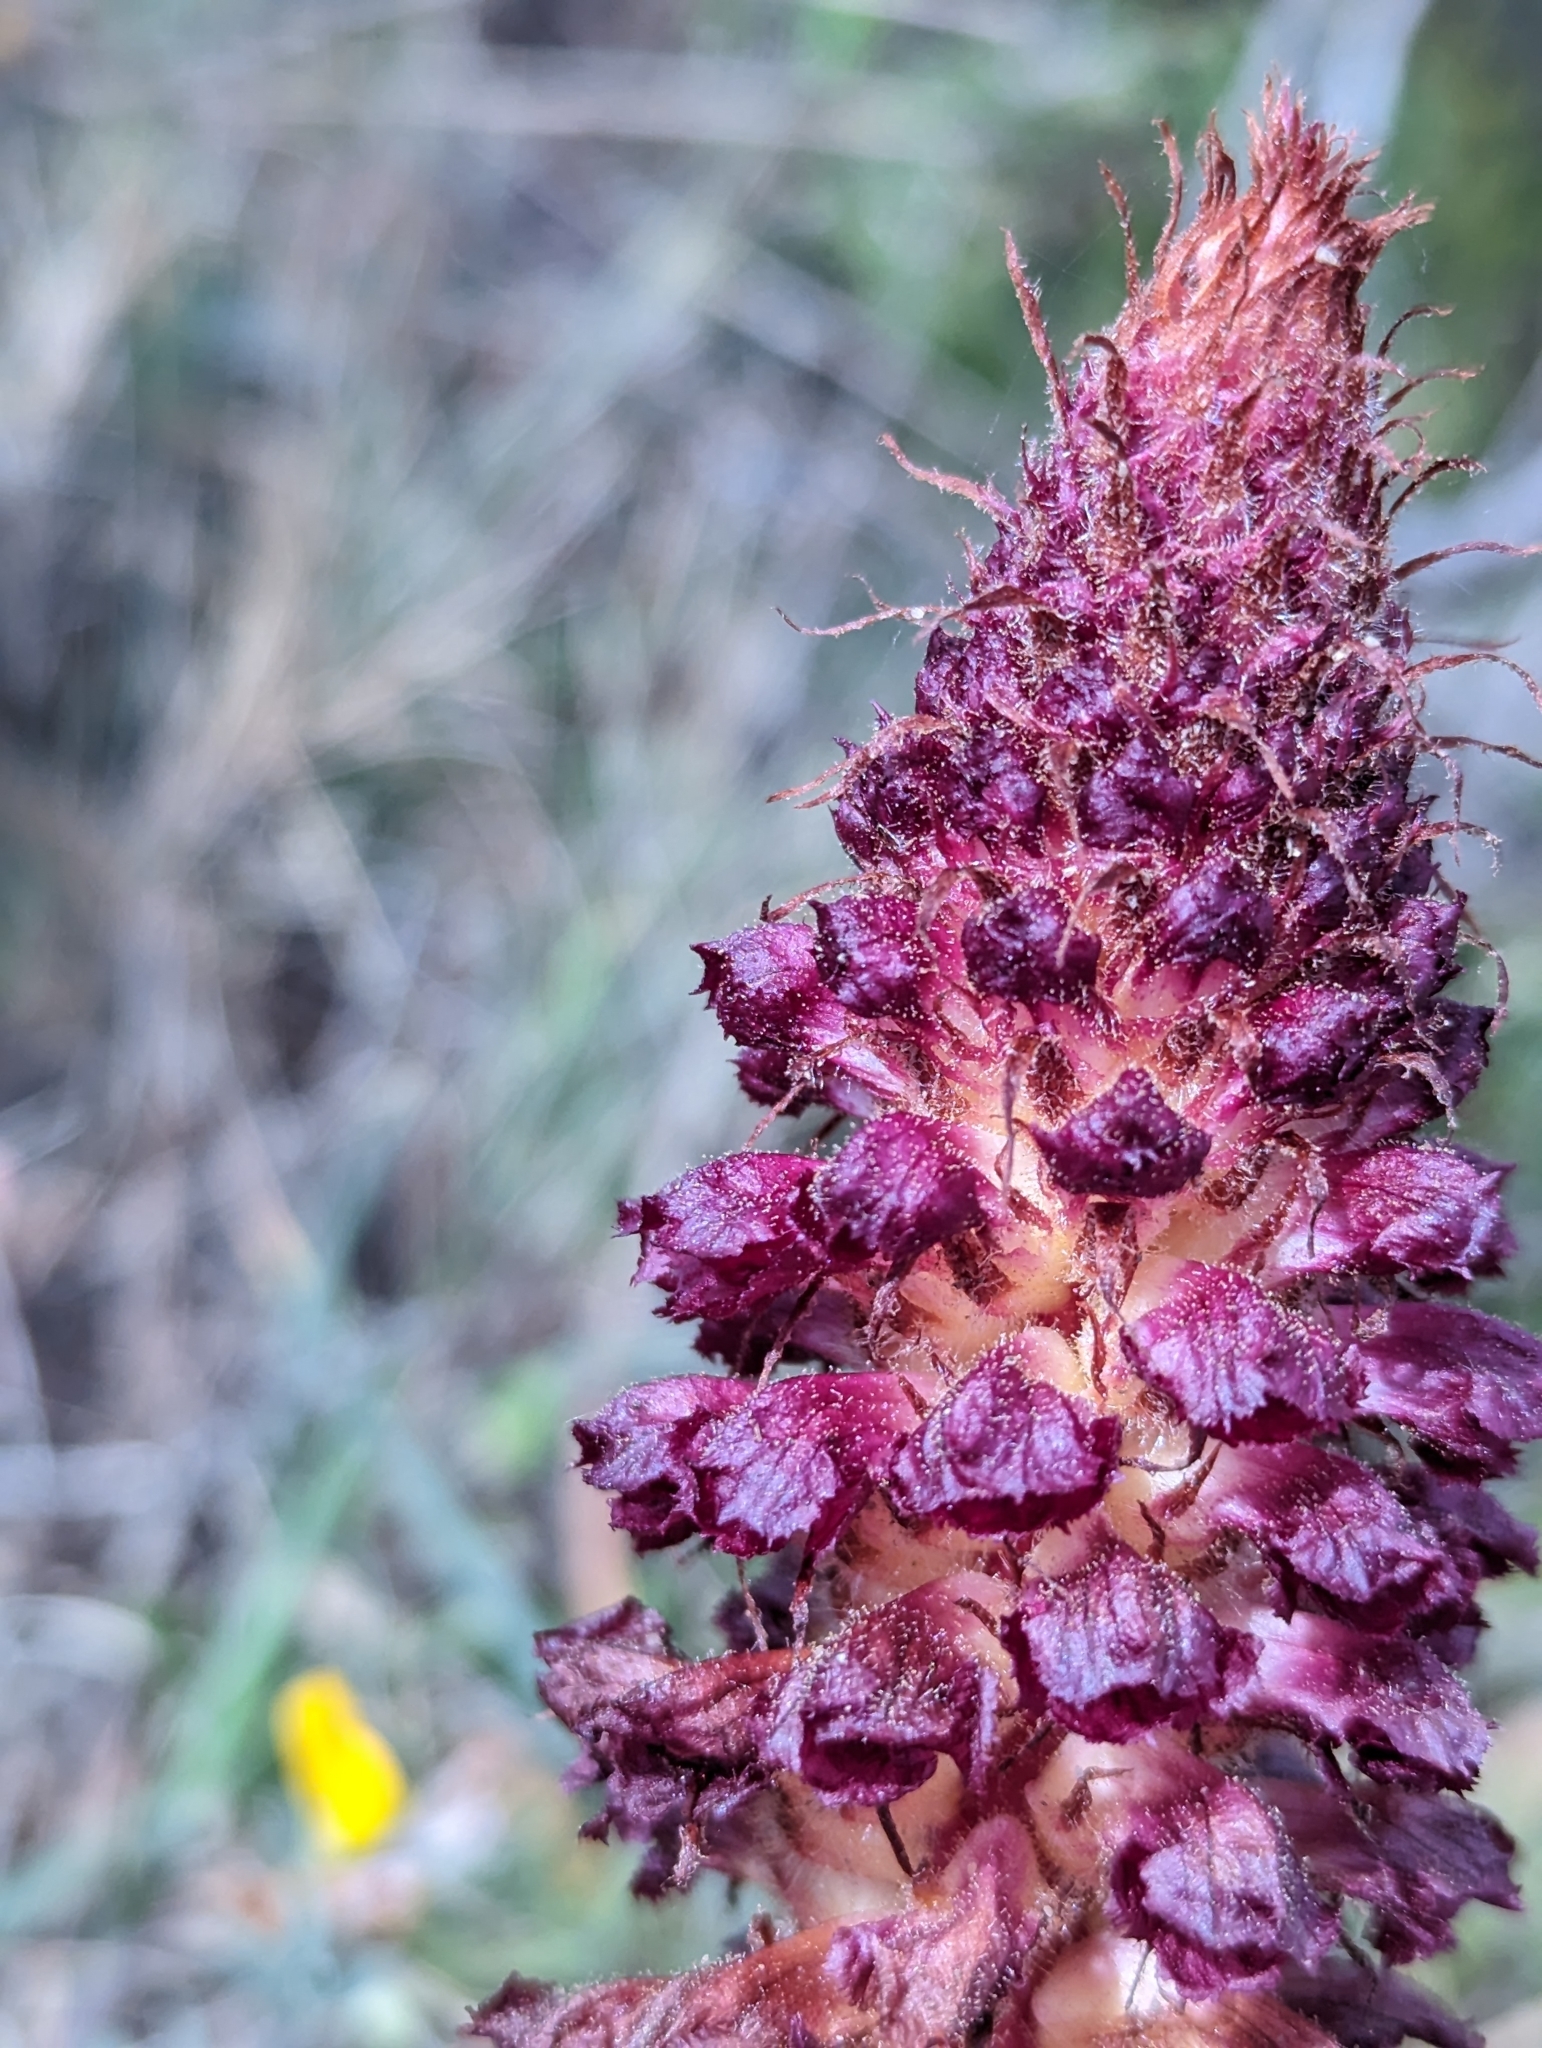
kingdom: Plantae
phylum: Tracheophyta
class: Magnoliopsida
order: Lamiales
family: Orobanchaceae
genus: Orobanche
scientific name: Orobanche sanguinea
